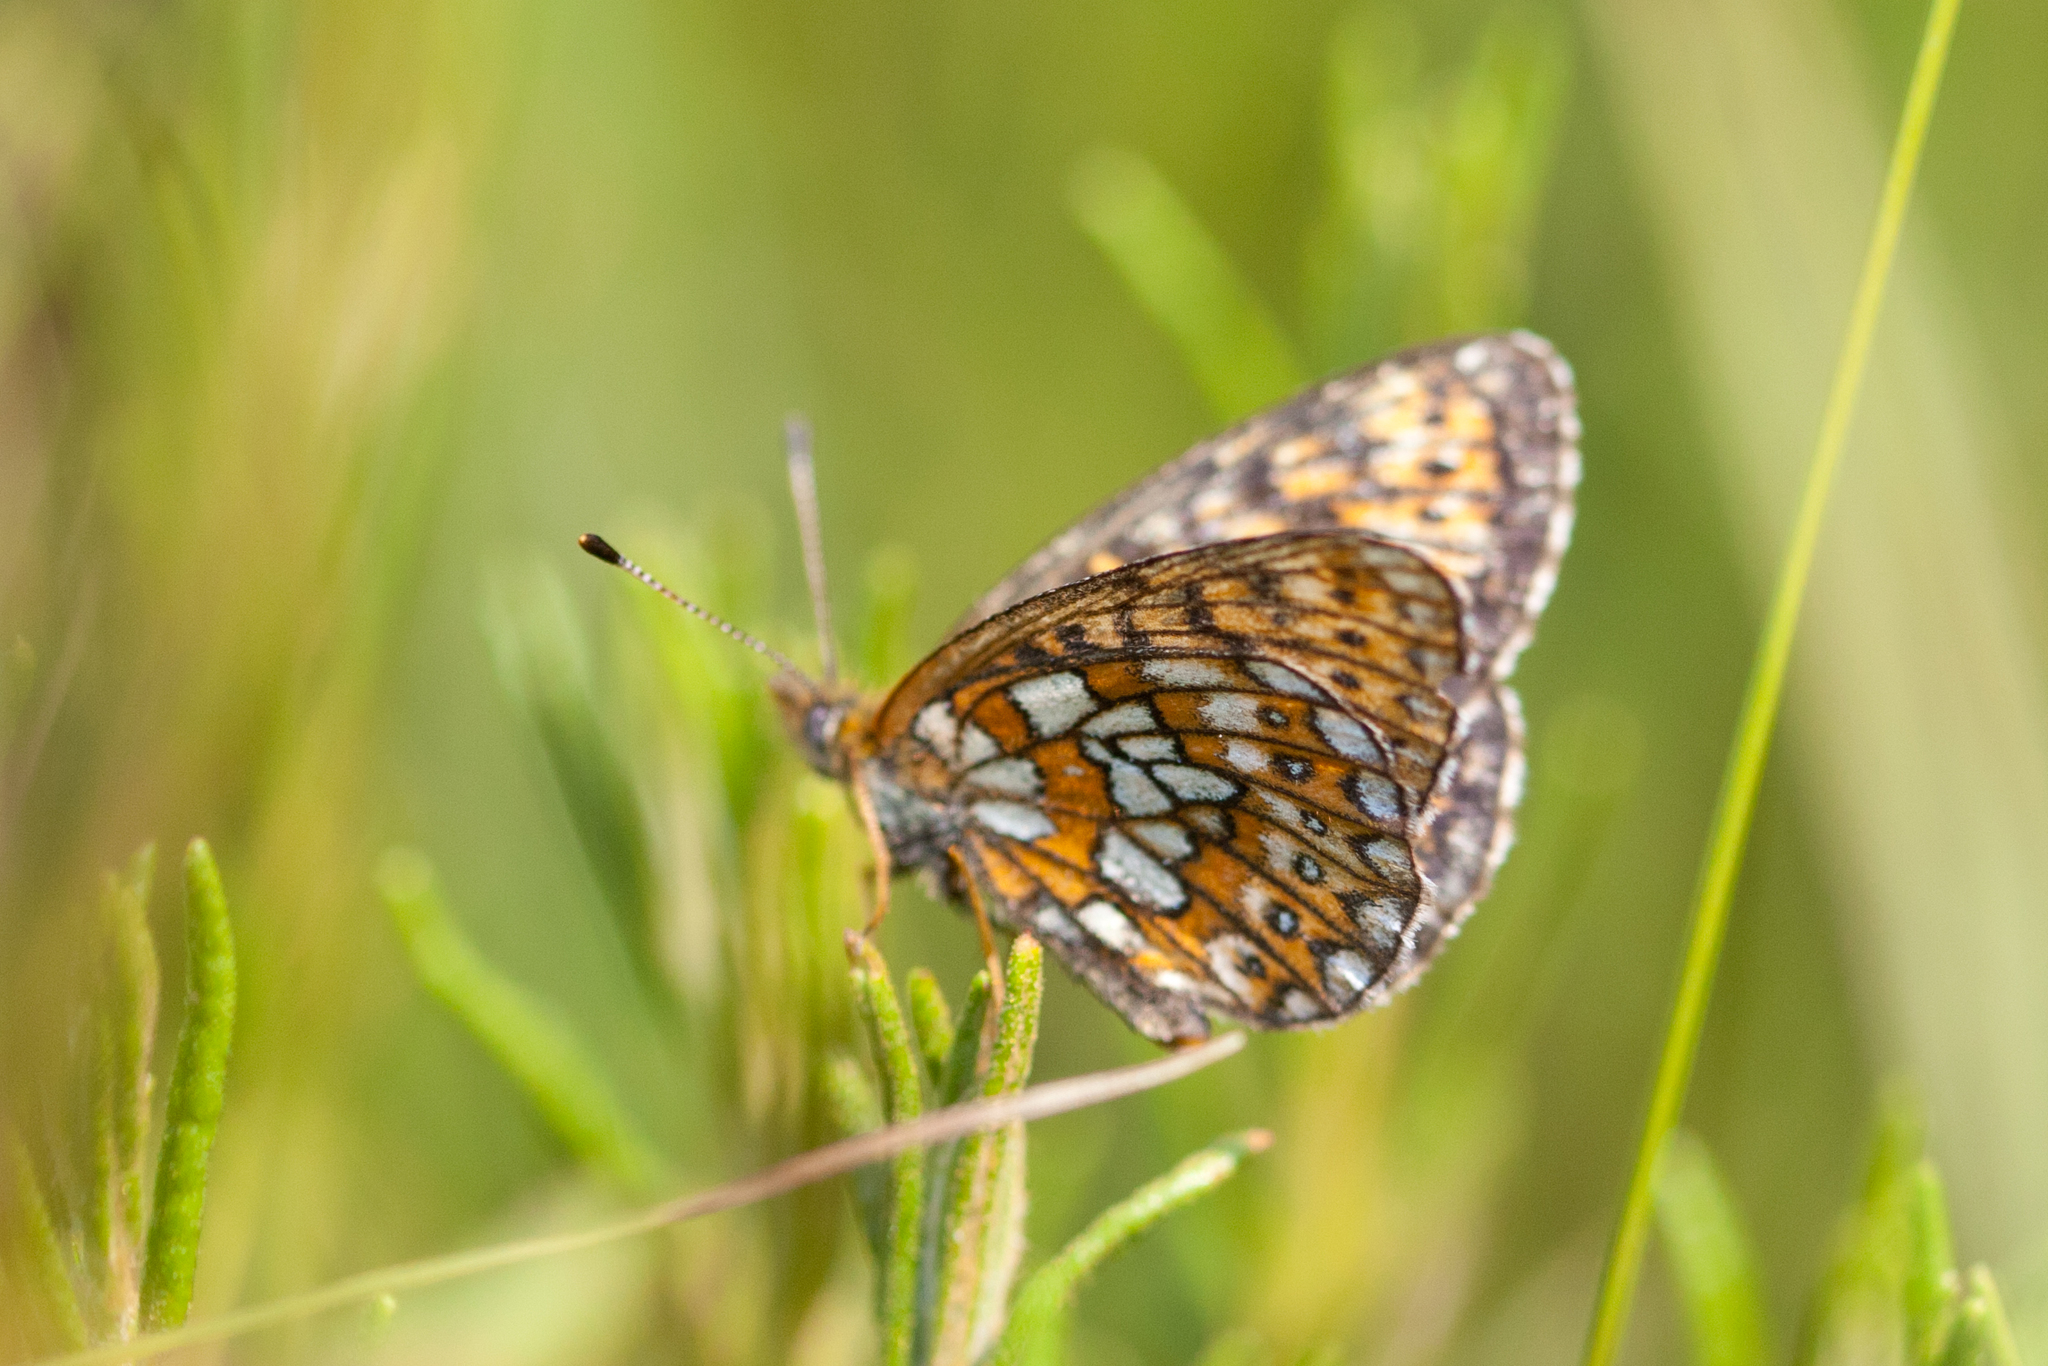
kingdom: Animalia
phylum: Arthropoda
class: Insecta
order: Lepidoptera
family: Nymphalidae
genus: Boloria
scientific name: Boloria eunomia
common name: Bog fritillary
